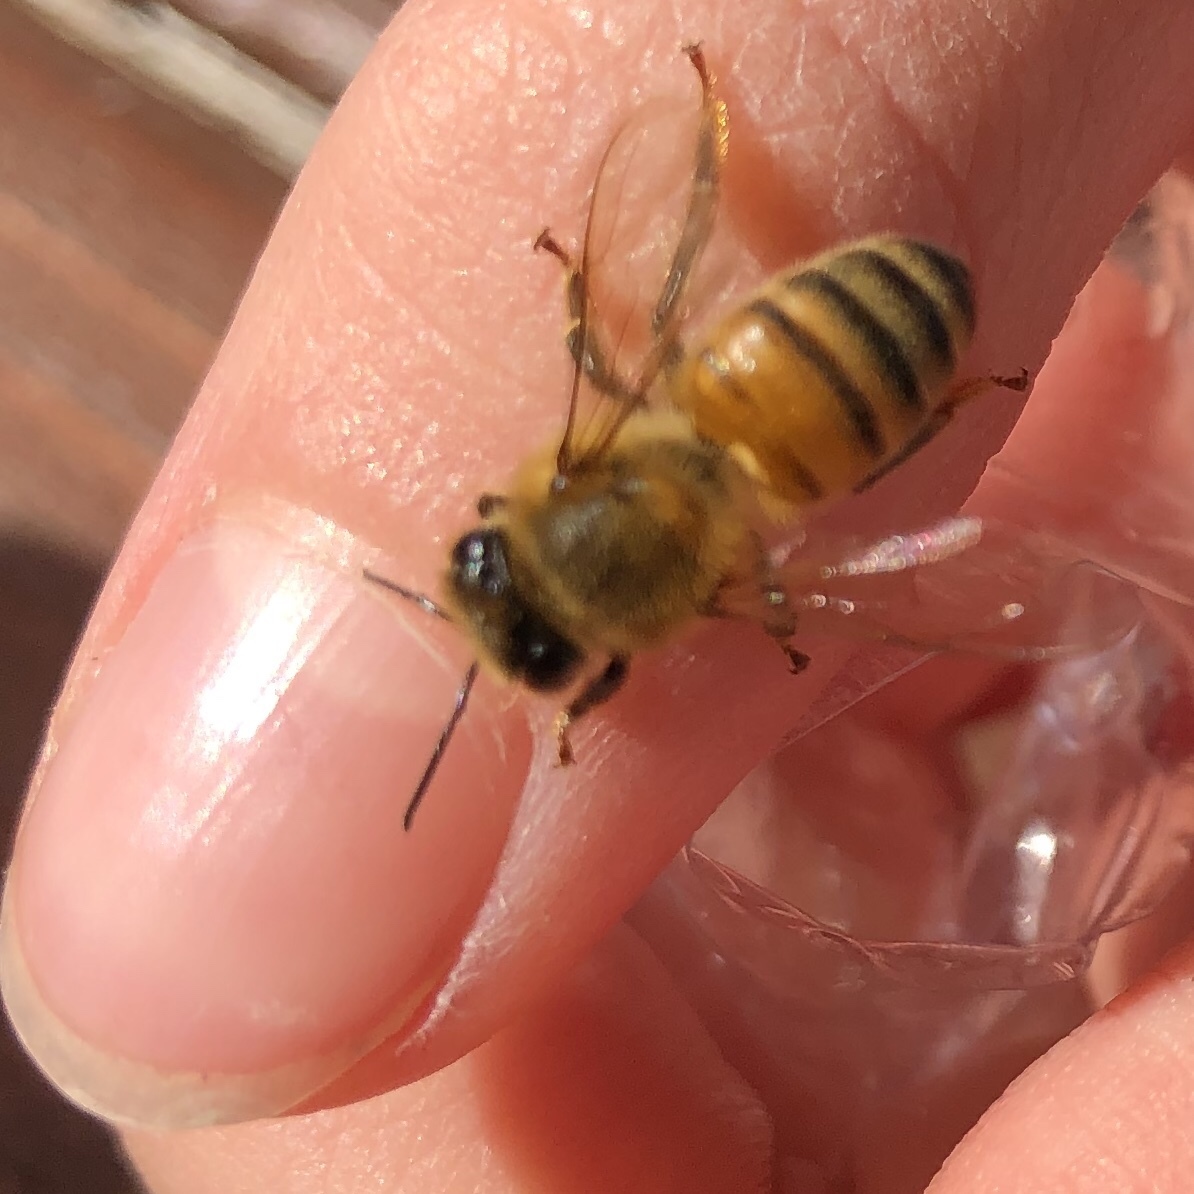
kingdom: Animalia
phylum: Arthropoda
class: Insecta
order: Hymenoptera
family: Apidae
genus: Apis
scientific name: Apis mellifera
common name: Honey bee
